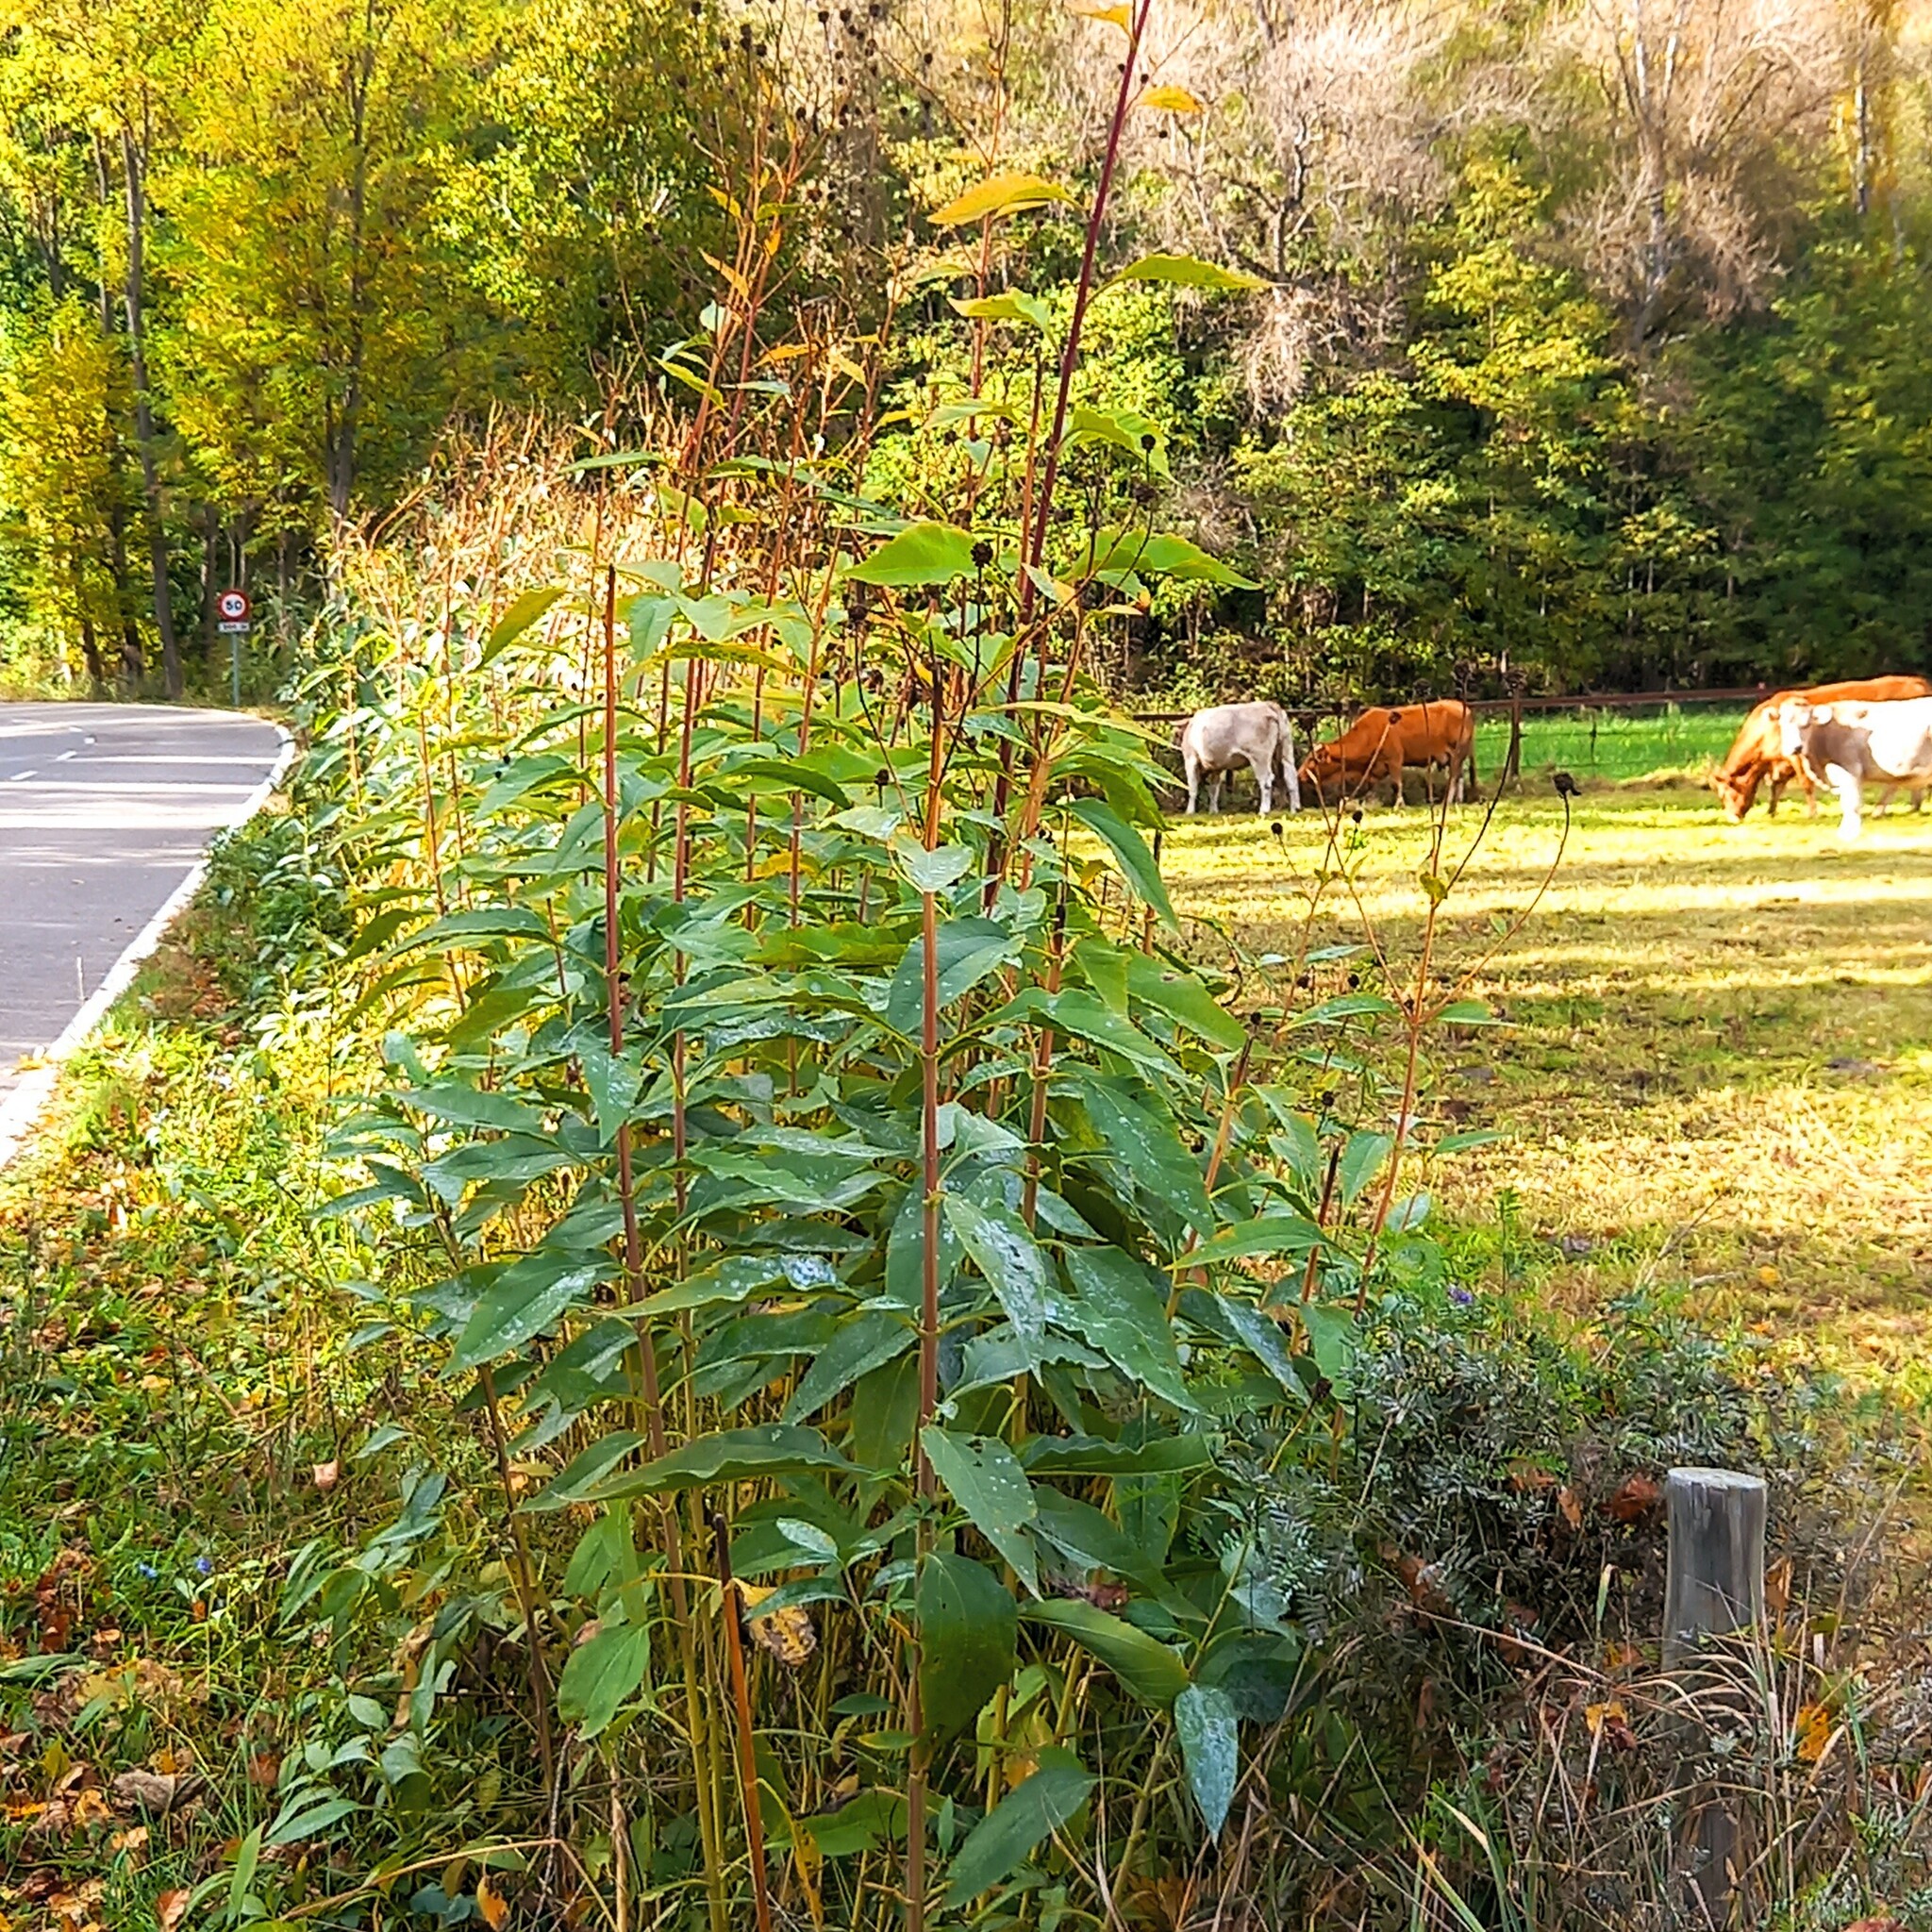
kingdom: Plantae
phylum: Tracheophyta
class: Magnoliopsida
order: Asterales
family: Asteraceae
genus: Helianthus
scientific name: Helianthus tuberosus
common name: Jerusalem artichoke
